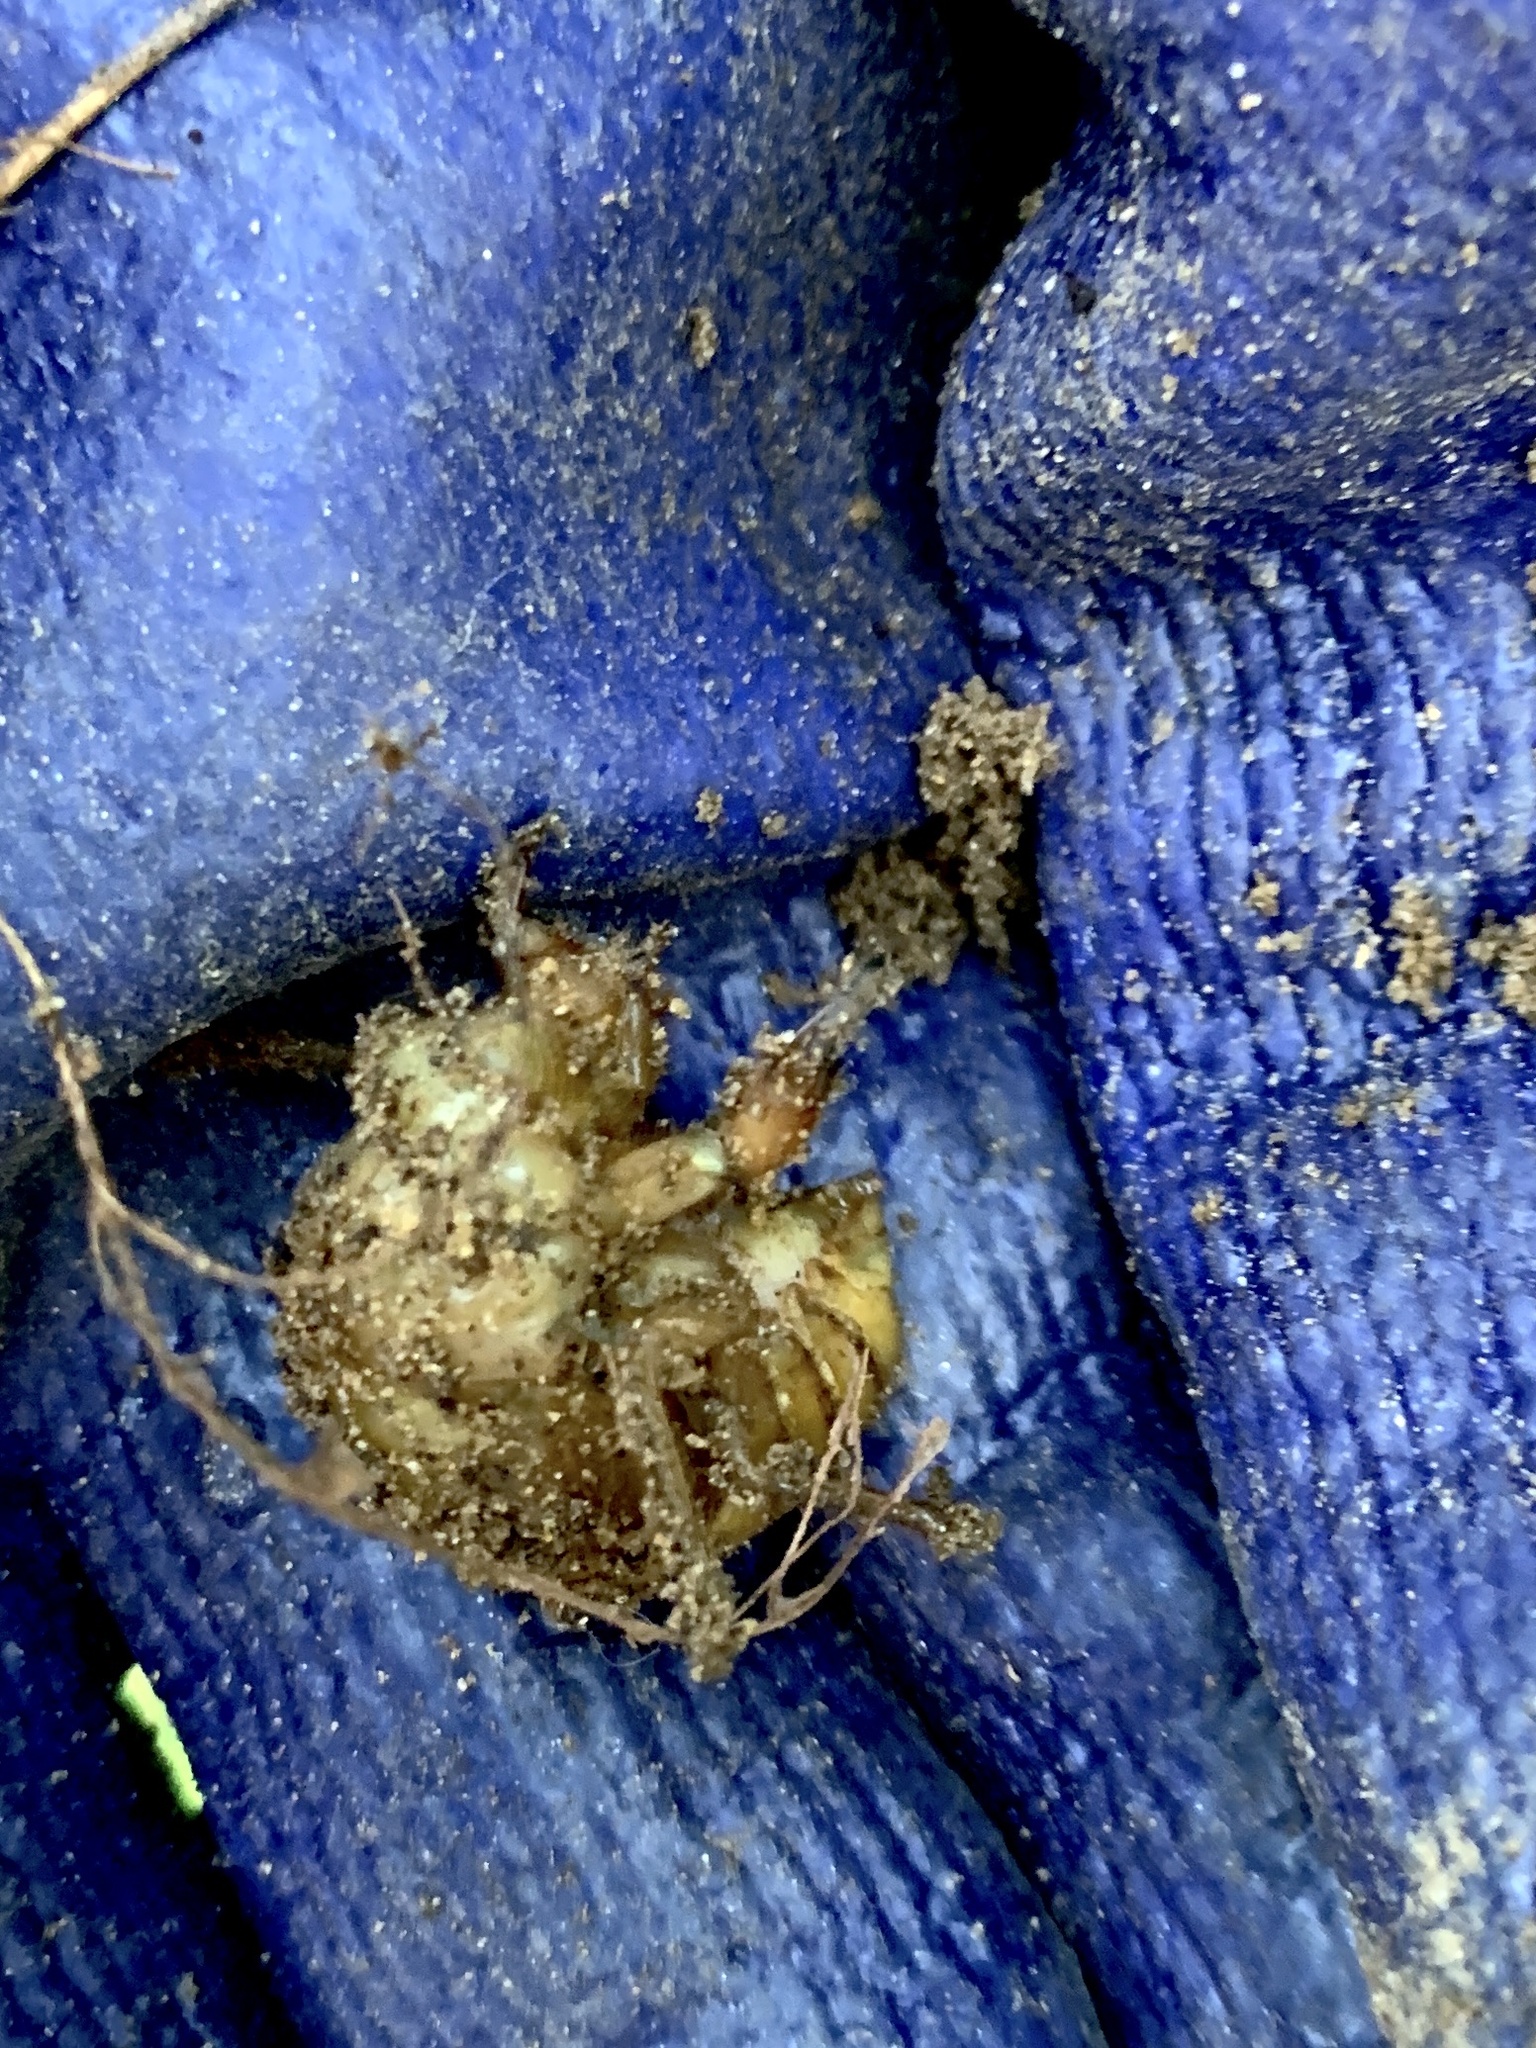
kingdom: Animalia
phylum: Arthropoda
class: Insecta
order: Hemiptera
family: Cicadidae
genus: Magicicada
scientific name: Magicicada
